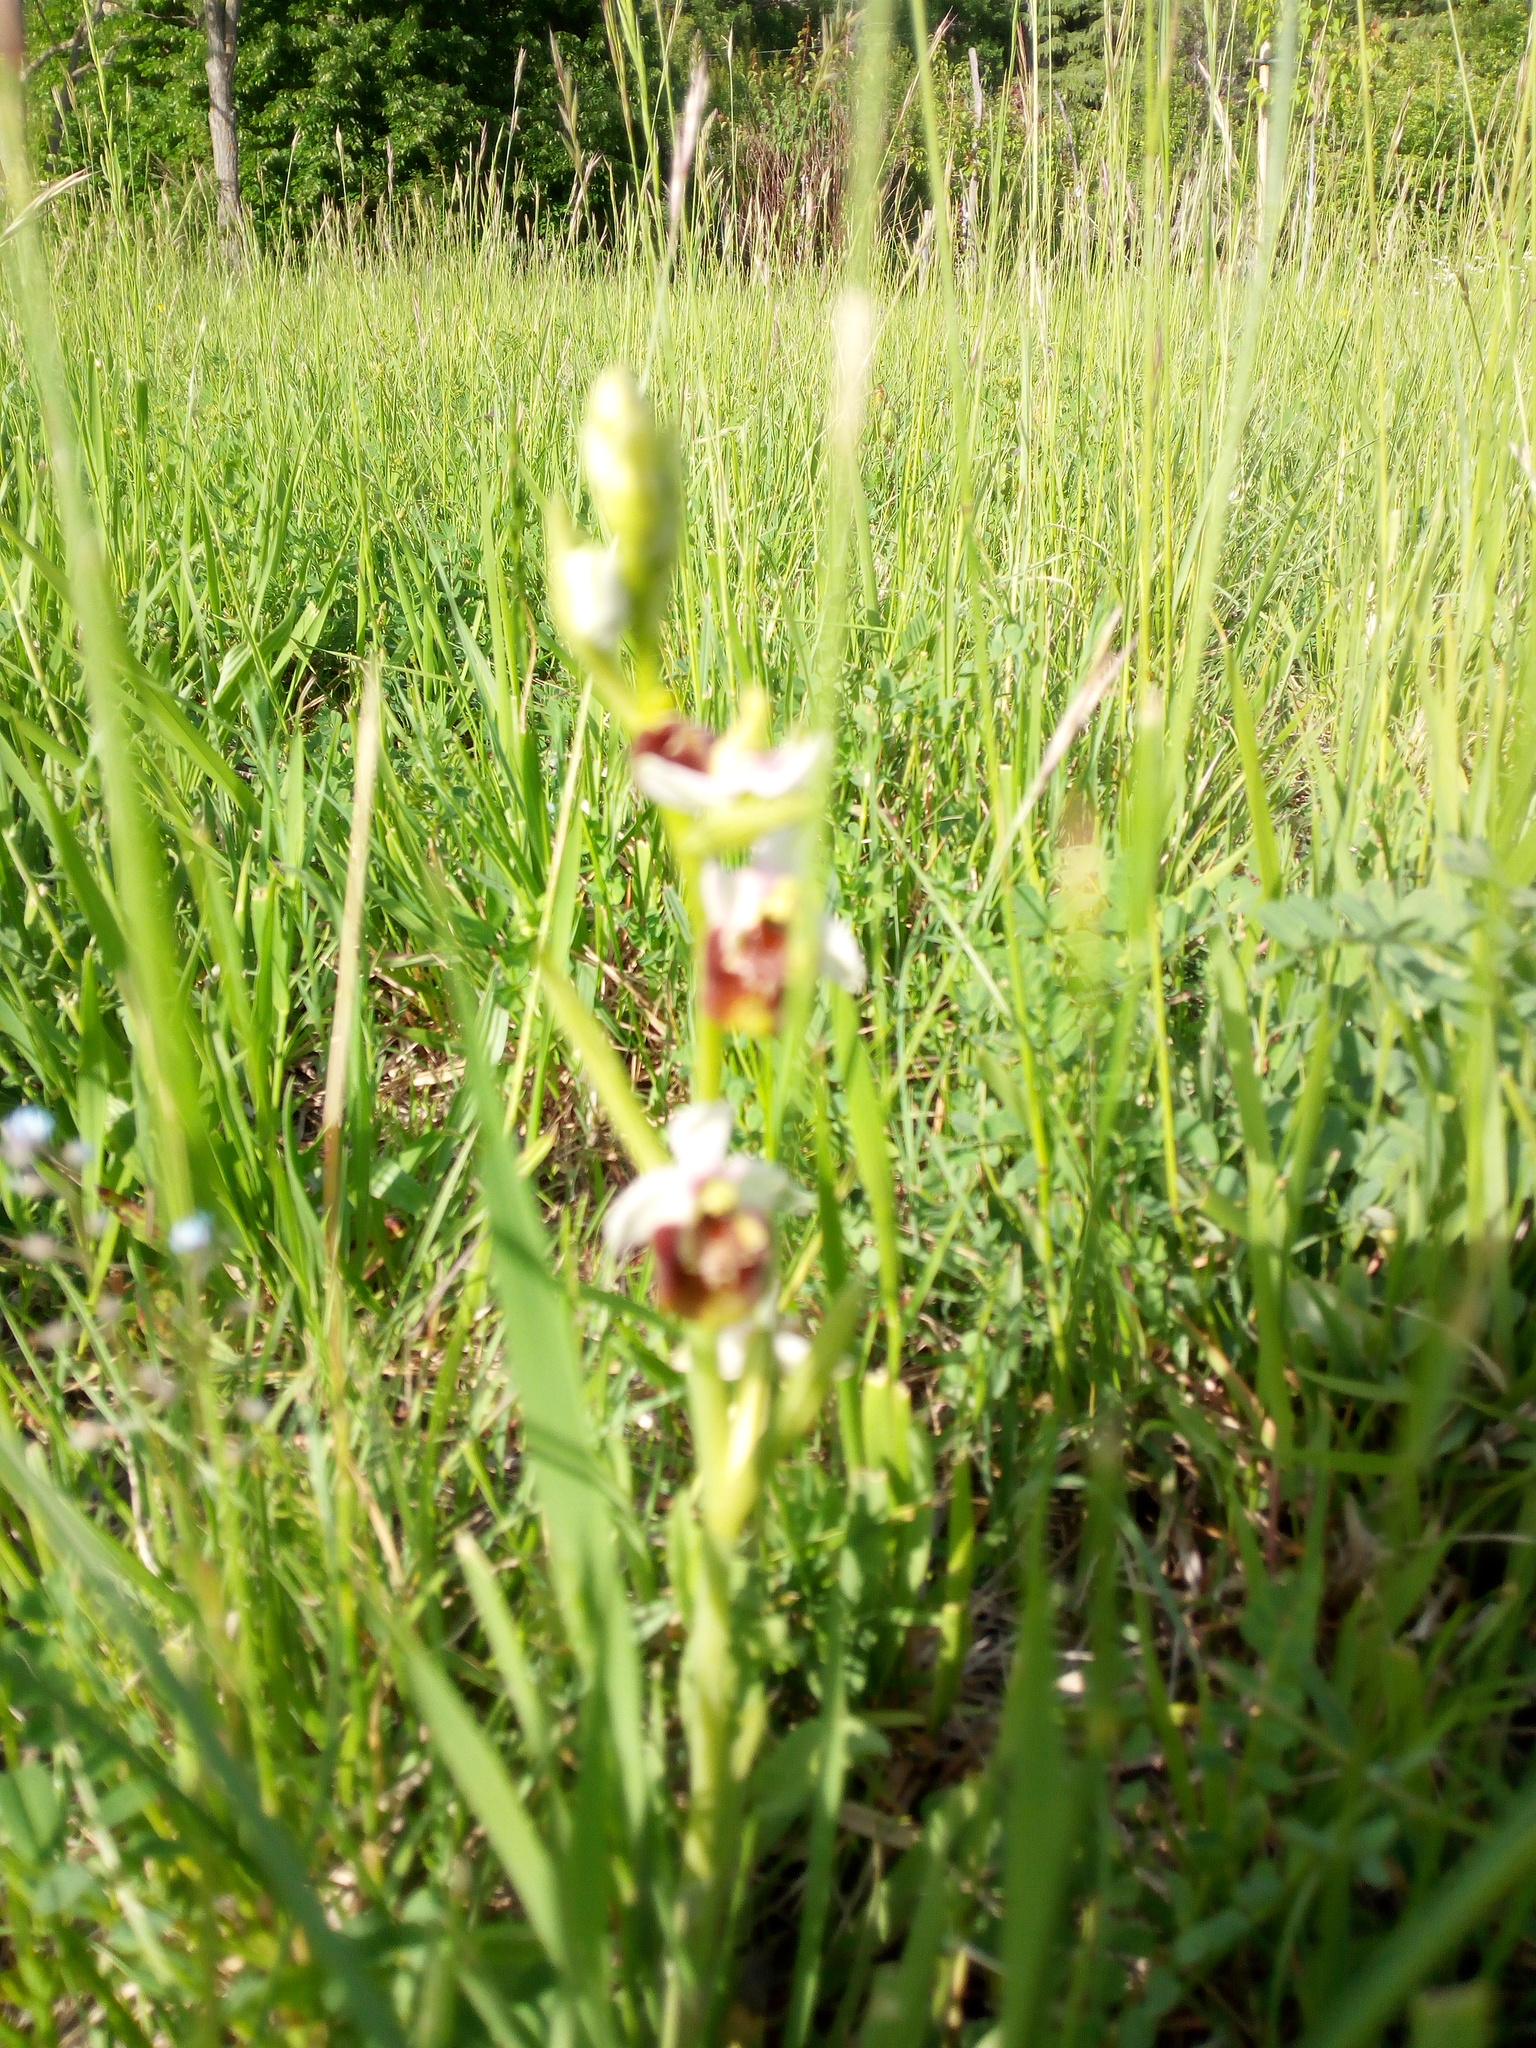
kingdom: Plantae
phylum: Tracheophyta
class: Liliopsida
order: Asparagales
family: Orchidaceae
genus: Ophrys
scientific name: Ophrys holosericea
